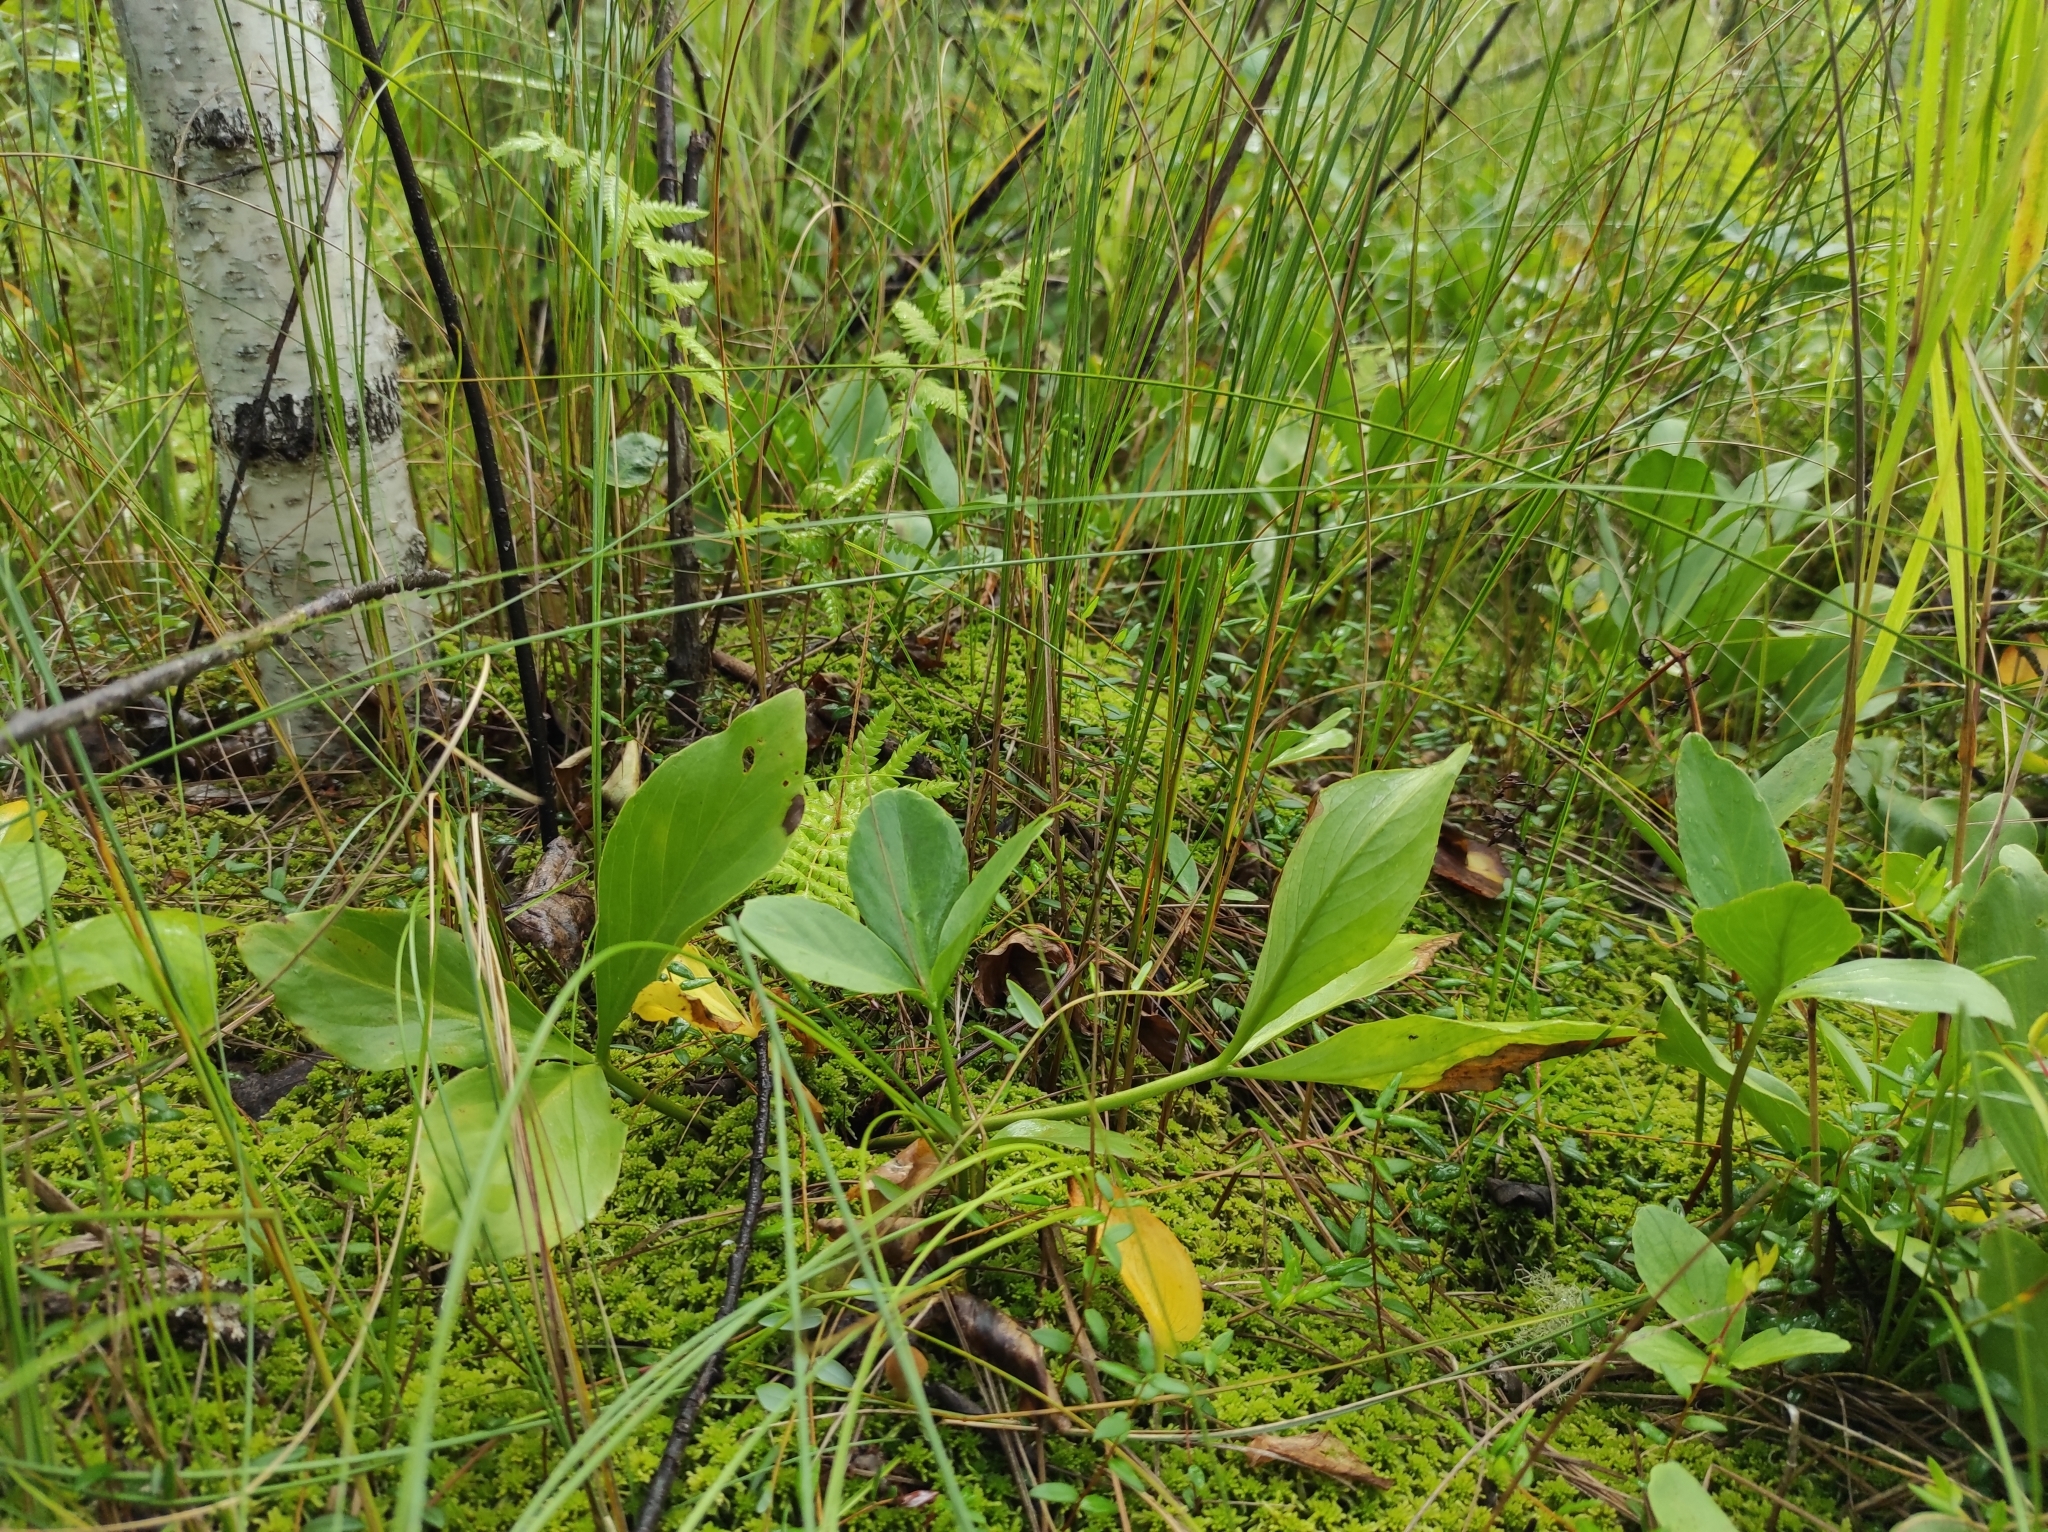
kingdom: Plantae
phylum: Tracheophyta
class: Magnoliopsida
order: Asterales
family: Menyanthaceae
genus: Menyanthes
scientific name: Menyanthes trifoliata
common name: Bogbean
